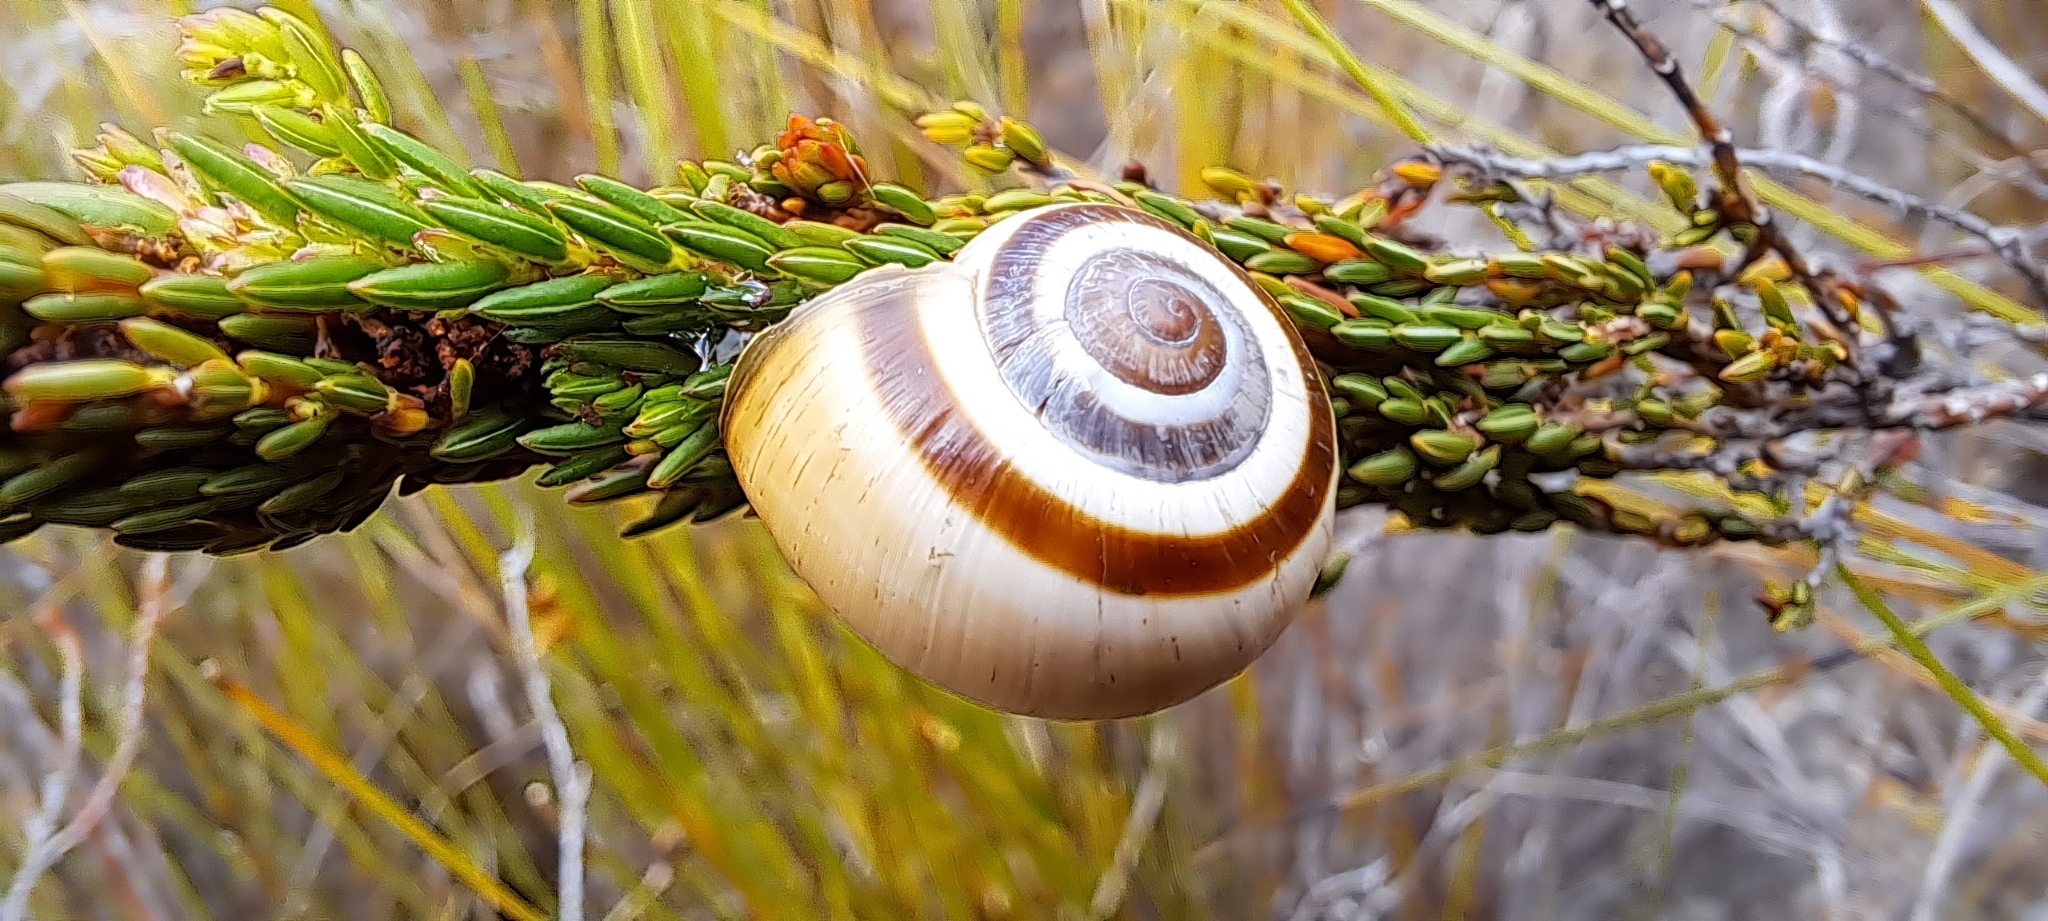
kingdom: Animalia
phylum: Mollusca
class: Gastropoda
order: Stylommatophora
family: Charopidae
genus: Phortion
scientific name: Phortion menkeanum
